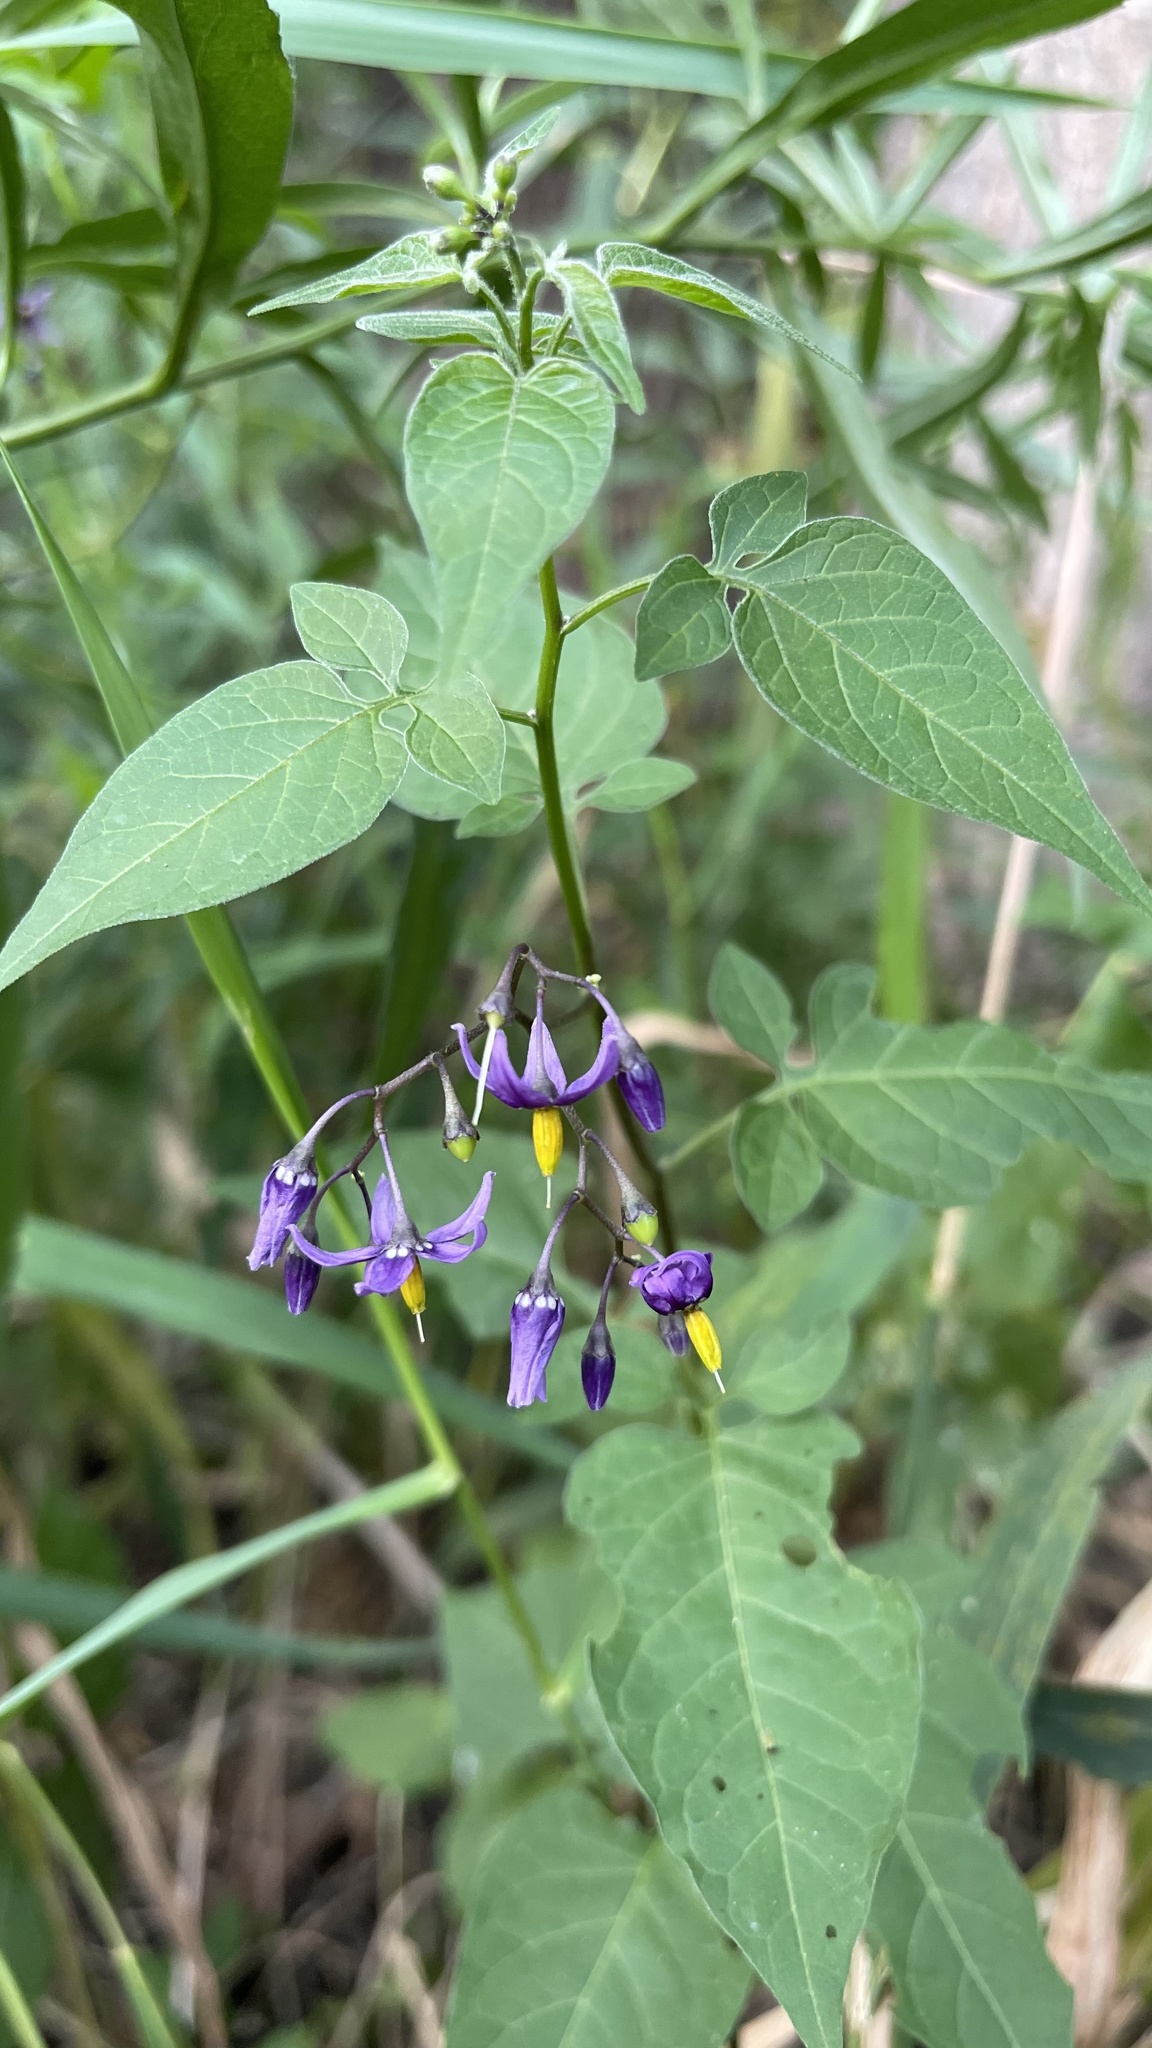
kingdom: Plantae
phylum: Tracheophyta
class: Magnoliopsida
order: Solanales
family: Solanaceae
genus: Solanum
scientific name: Solanum dulcamara
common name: Climbing nightshade
